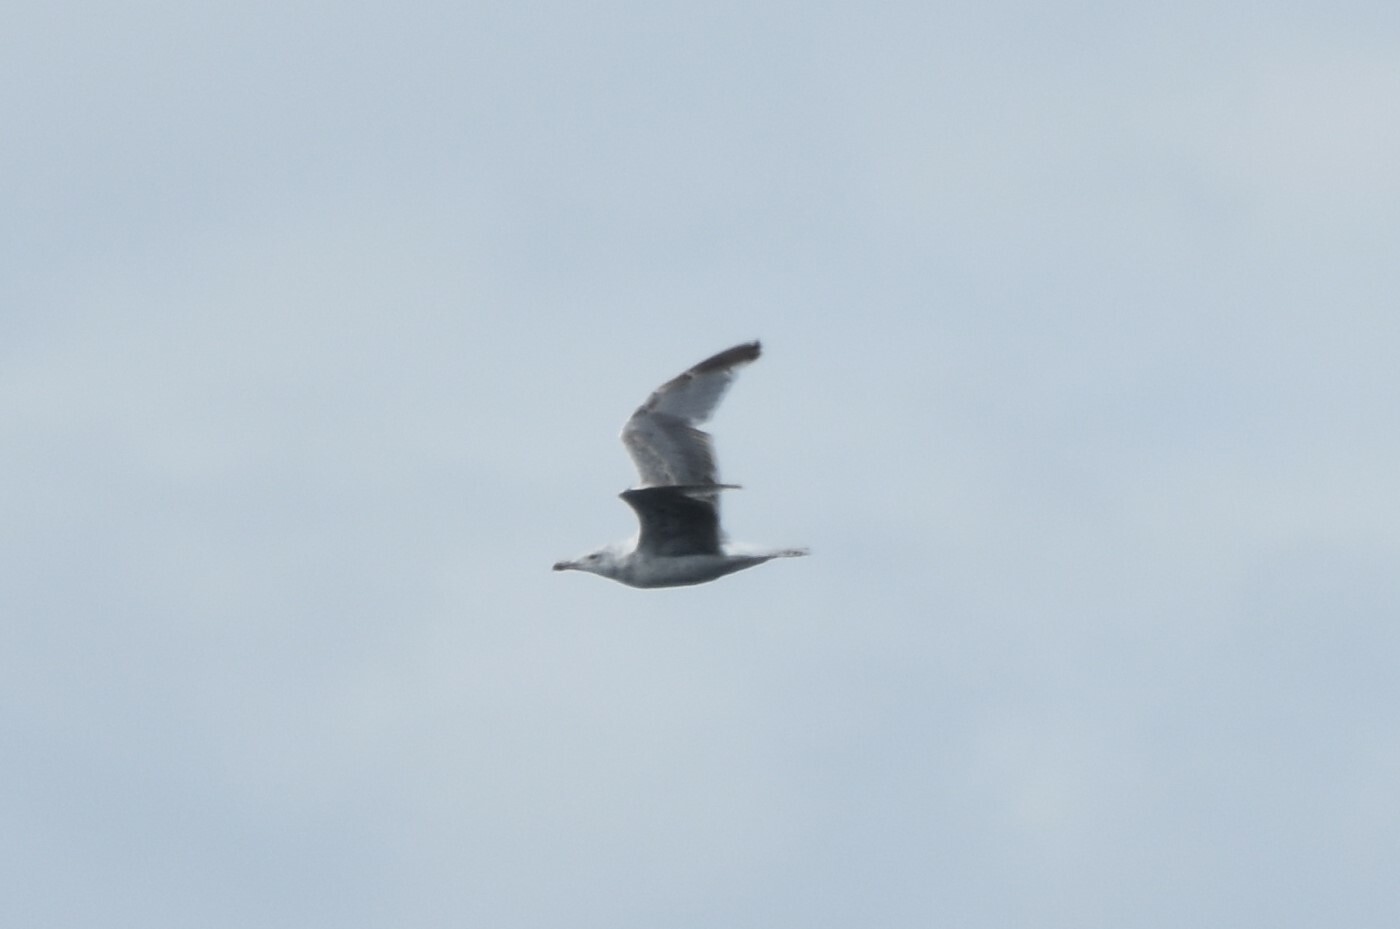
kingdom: Animalia
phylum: Chordata
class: Aves
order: Charadriiformes
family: Laridae
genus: Larus
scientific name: Larus fuscus
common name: Lesser black-backed gull
